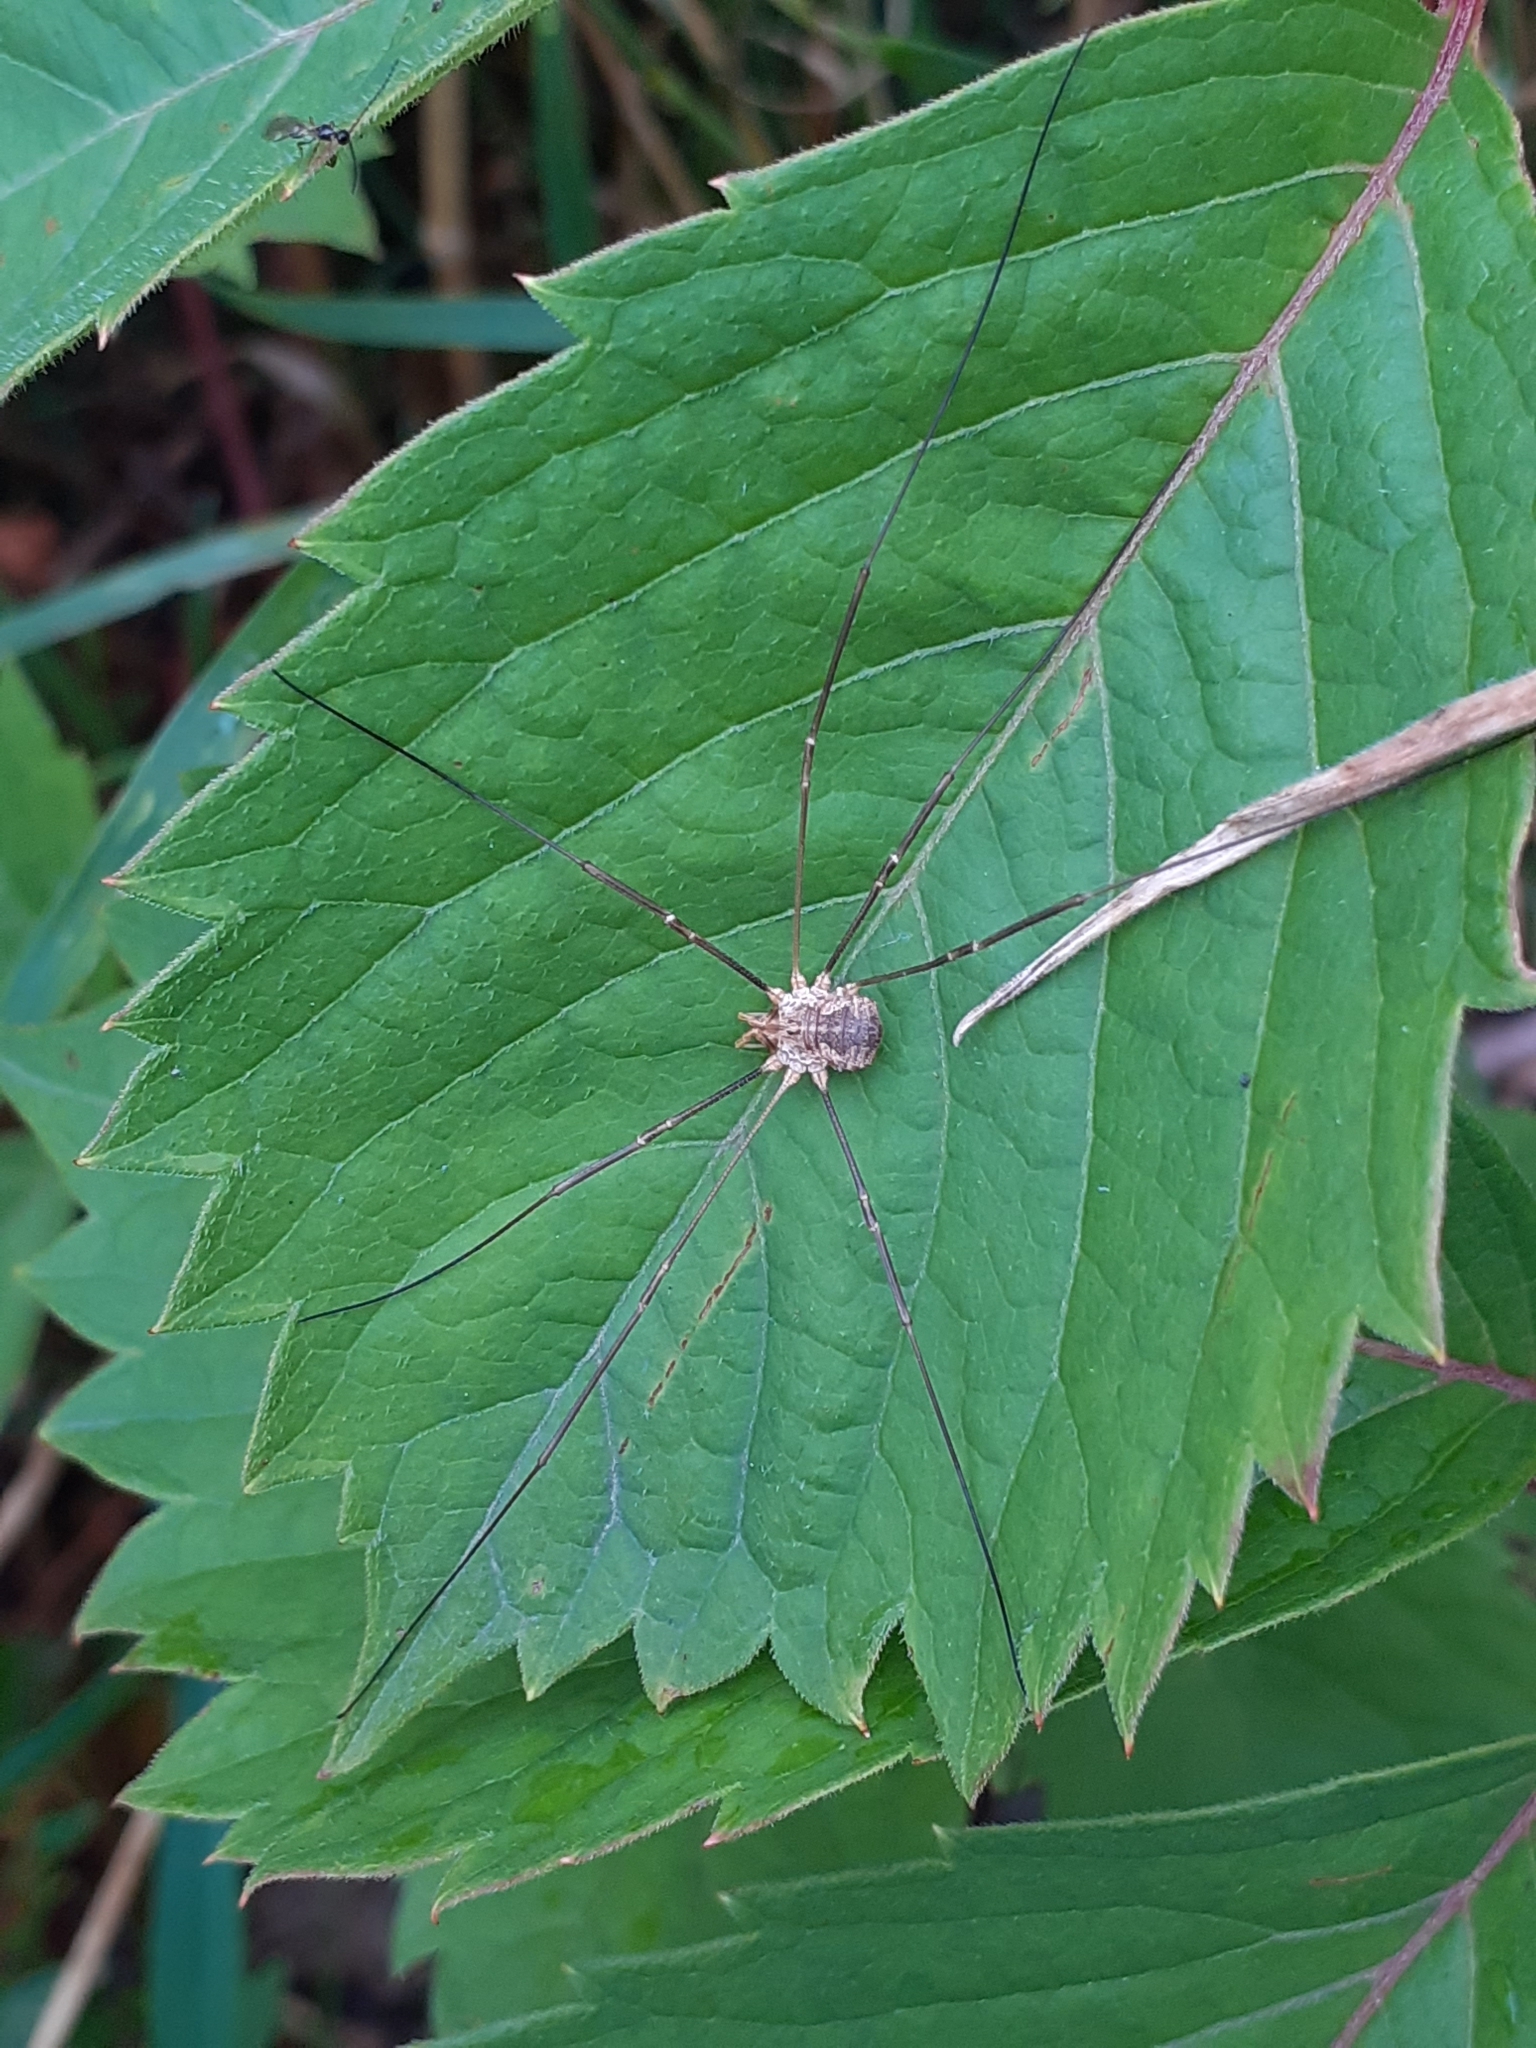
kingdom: Animalia
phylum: Arthropoda
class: Arachnida
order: Opiliones
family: Phalangiidae
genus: Phalangium
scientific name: Phalangium opilio
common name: Daddy longleg
